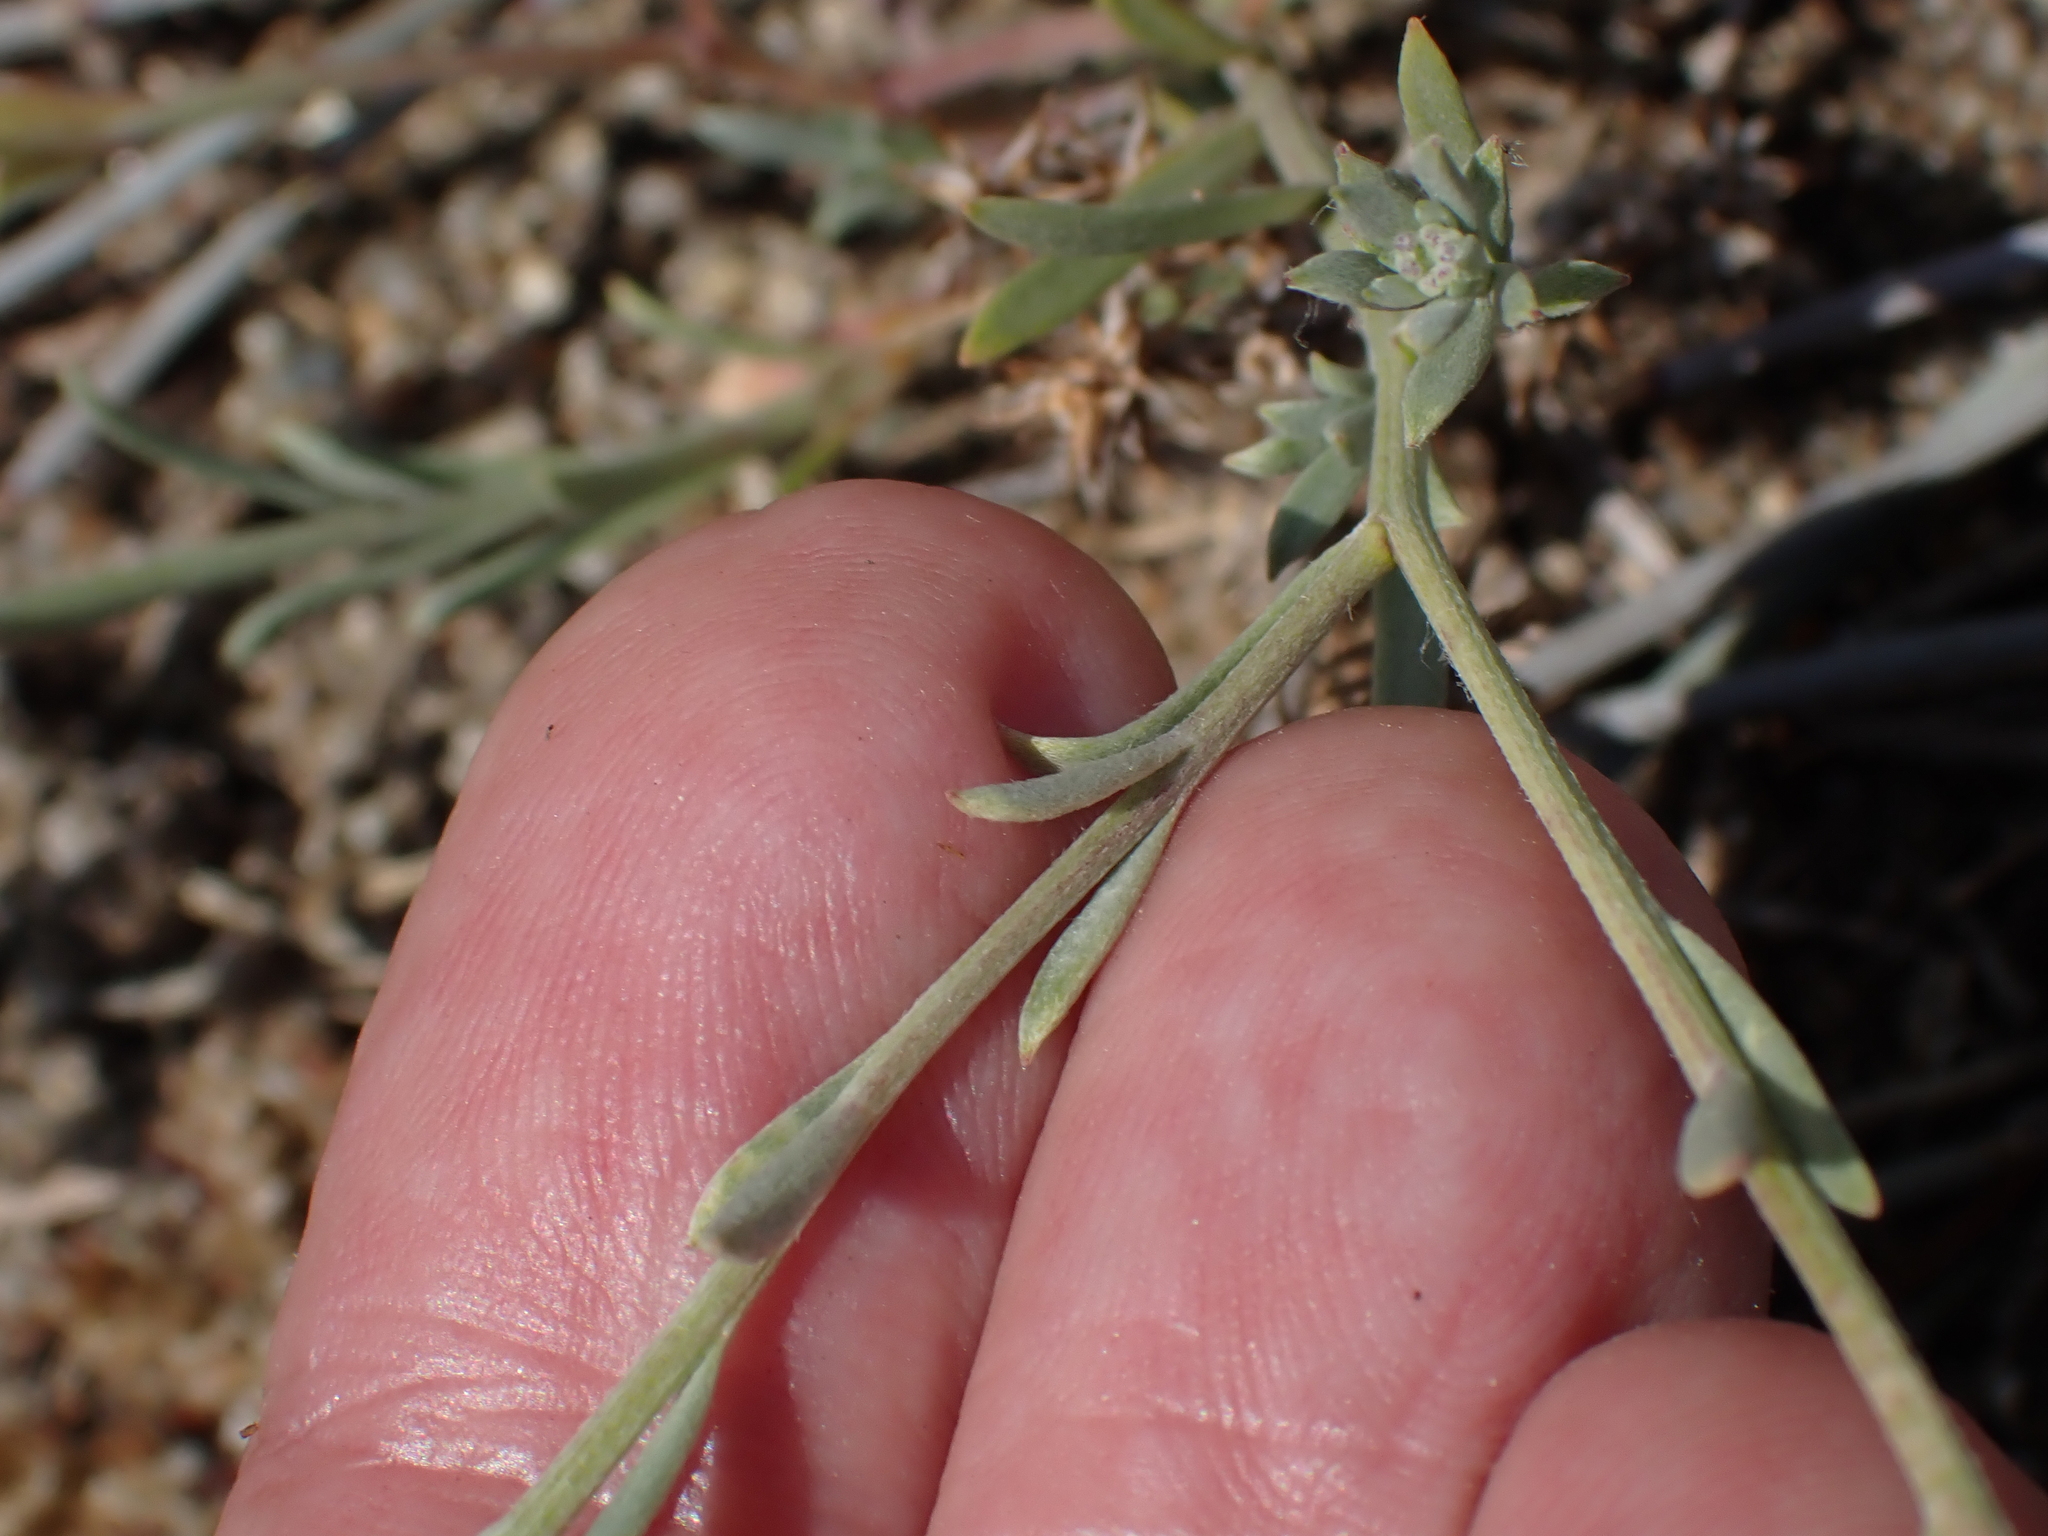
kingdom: Plantae
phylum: Tracheophyta
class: Magnoliopsida
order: Brassicales
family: Brassicaceae
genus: Lobularia
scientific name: Lobularia maritima
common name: Sweet alison
